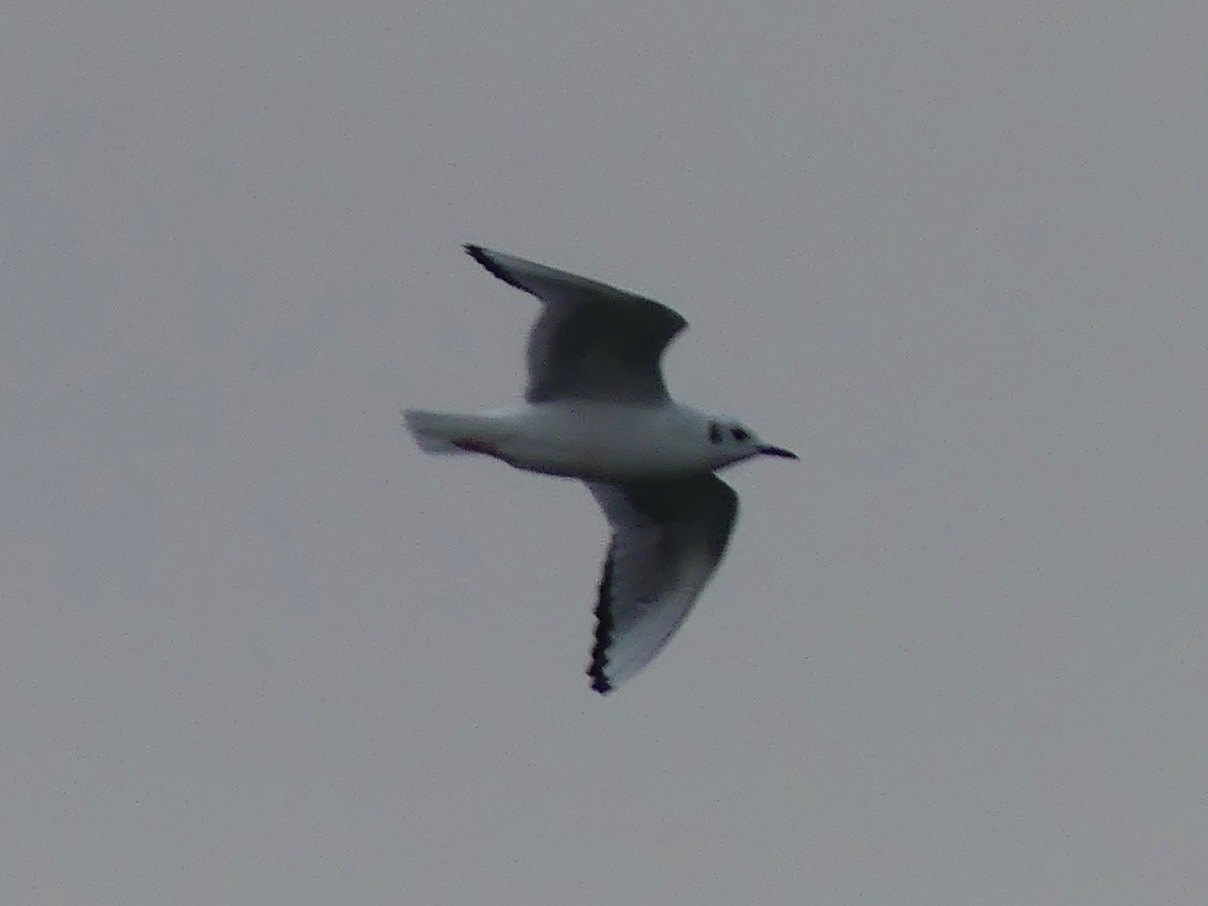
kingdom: Animalia
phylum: Chordata
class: Aves
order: Charadriiformes
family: Laridae
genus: Chroicocephalus
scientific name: Chroicocephalus philadelphia
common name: Bonaparte's gull
